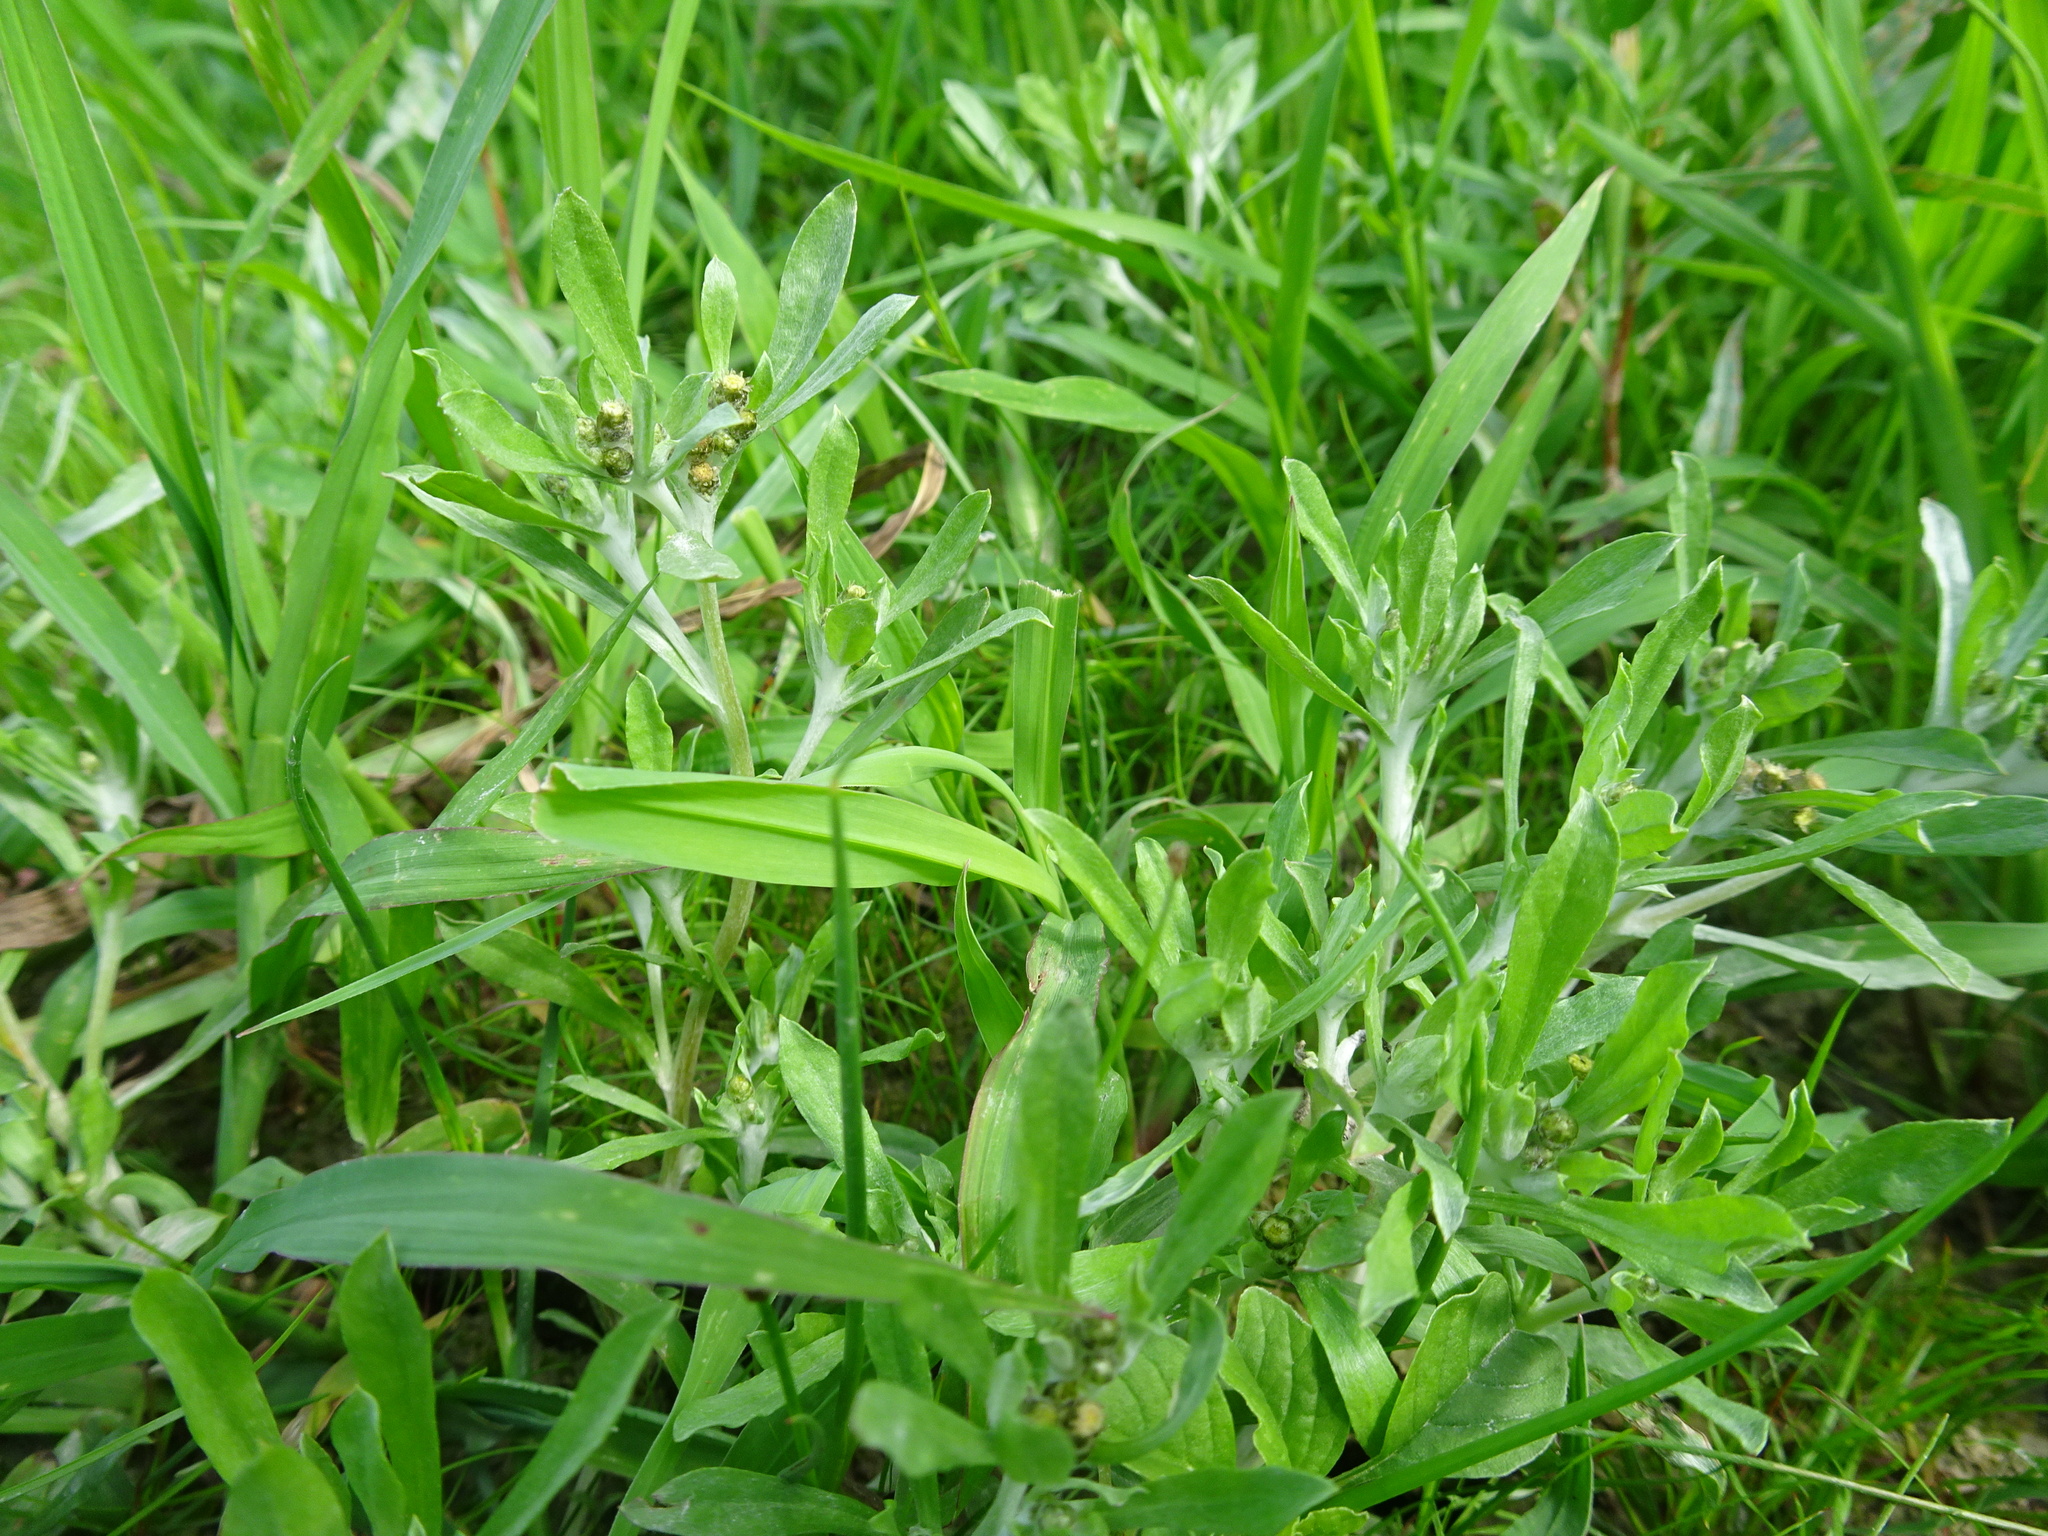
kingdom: Plantae
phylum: Tracheophyta
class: Magnoliopsida
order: Asterales
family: Asteraceae
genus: Gnaphalium
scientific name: Gnaphalium uliginosum
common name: Marsh cudweed
